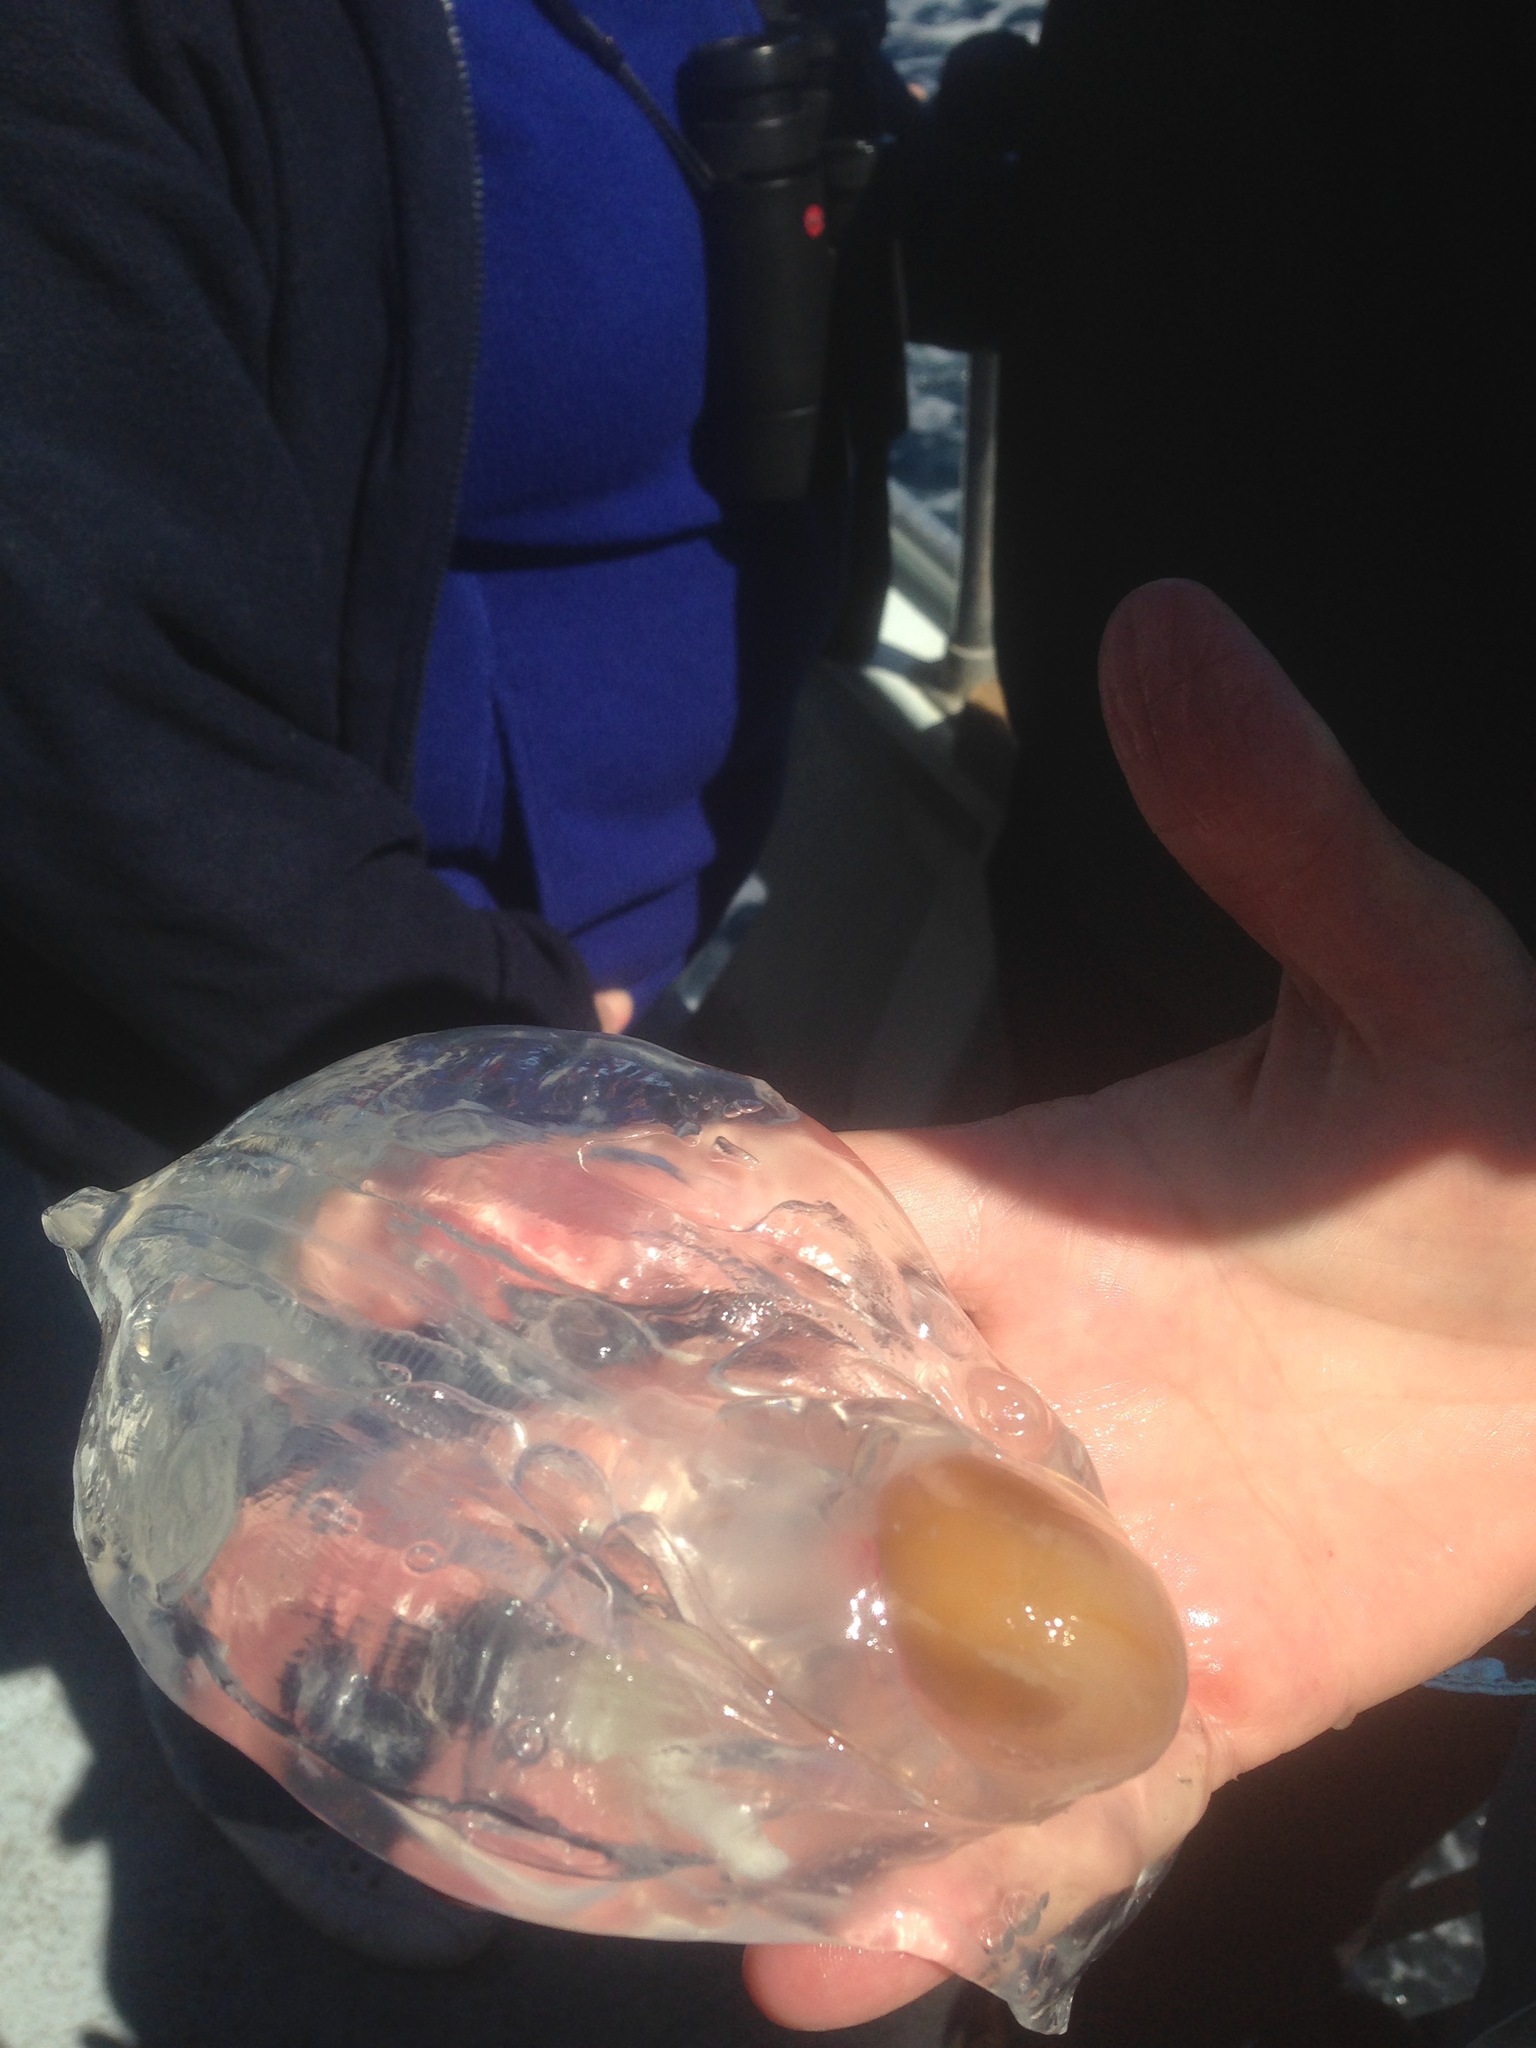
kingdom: Animalia
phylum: Chordata
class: Thaliacea
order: Salpida
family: Salpidae
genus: Thetys
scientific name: Thetys vagina
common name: Vagina salp
